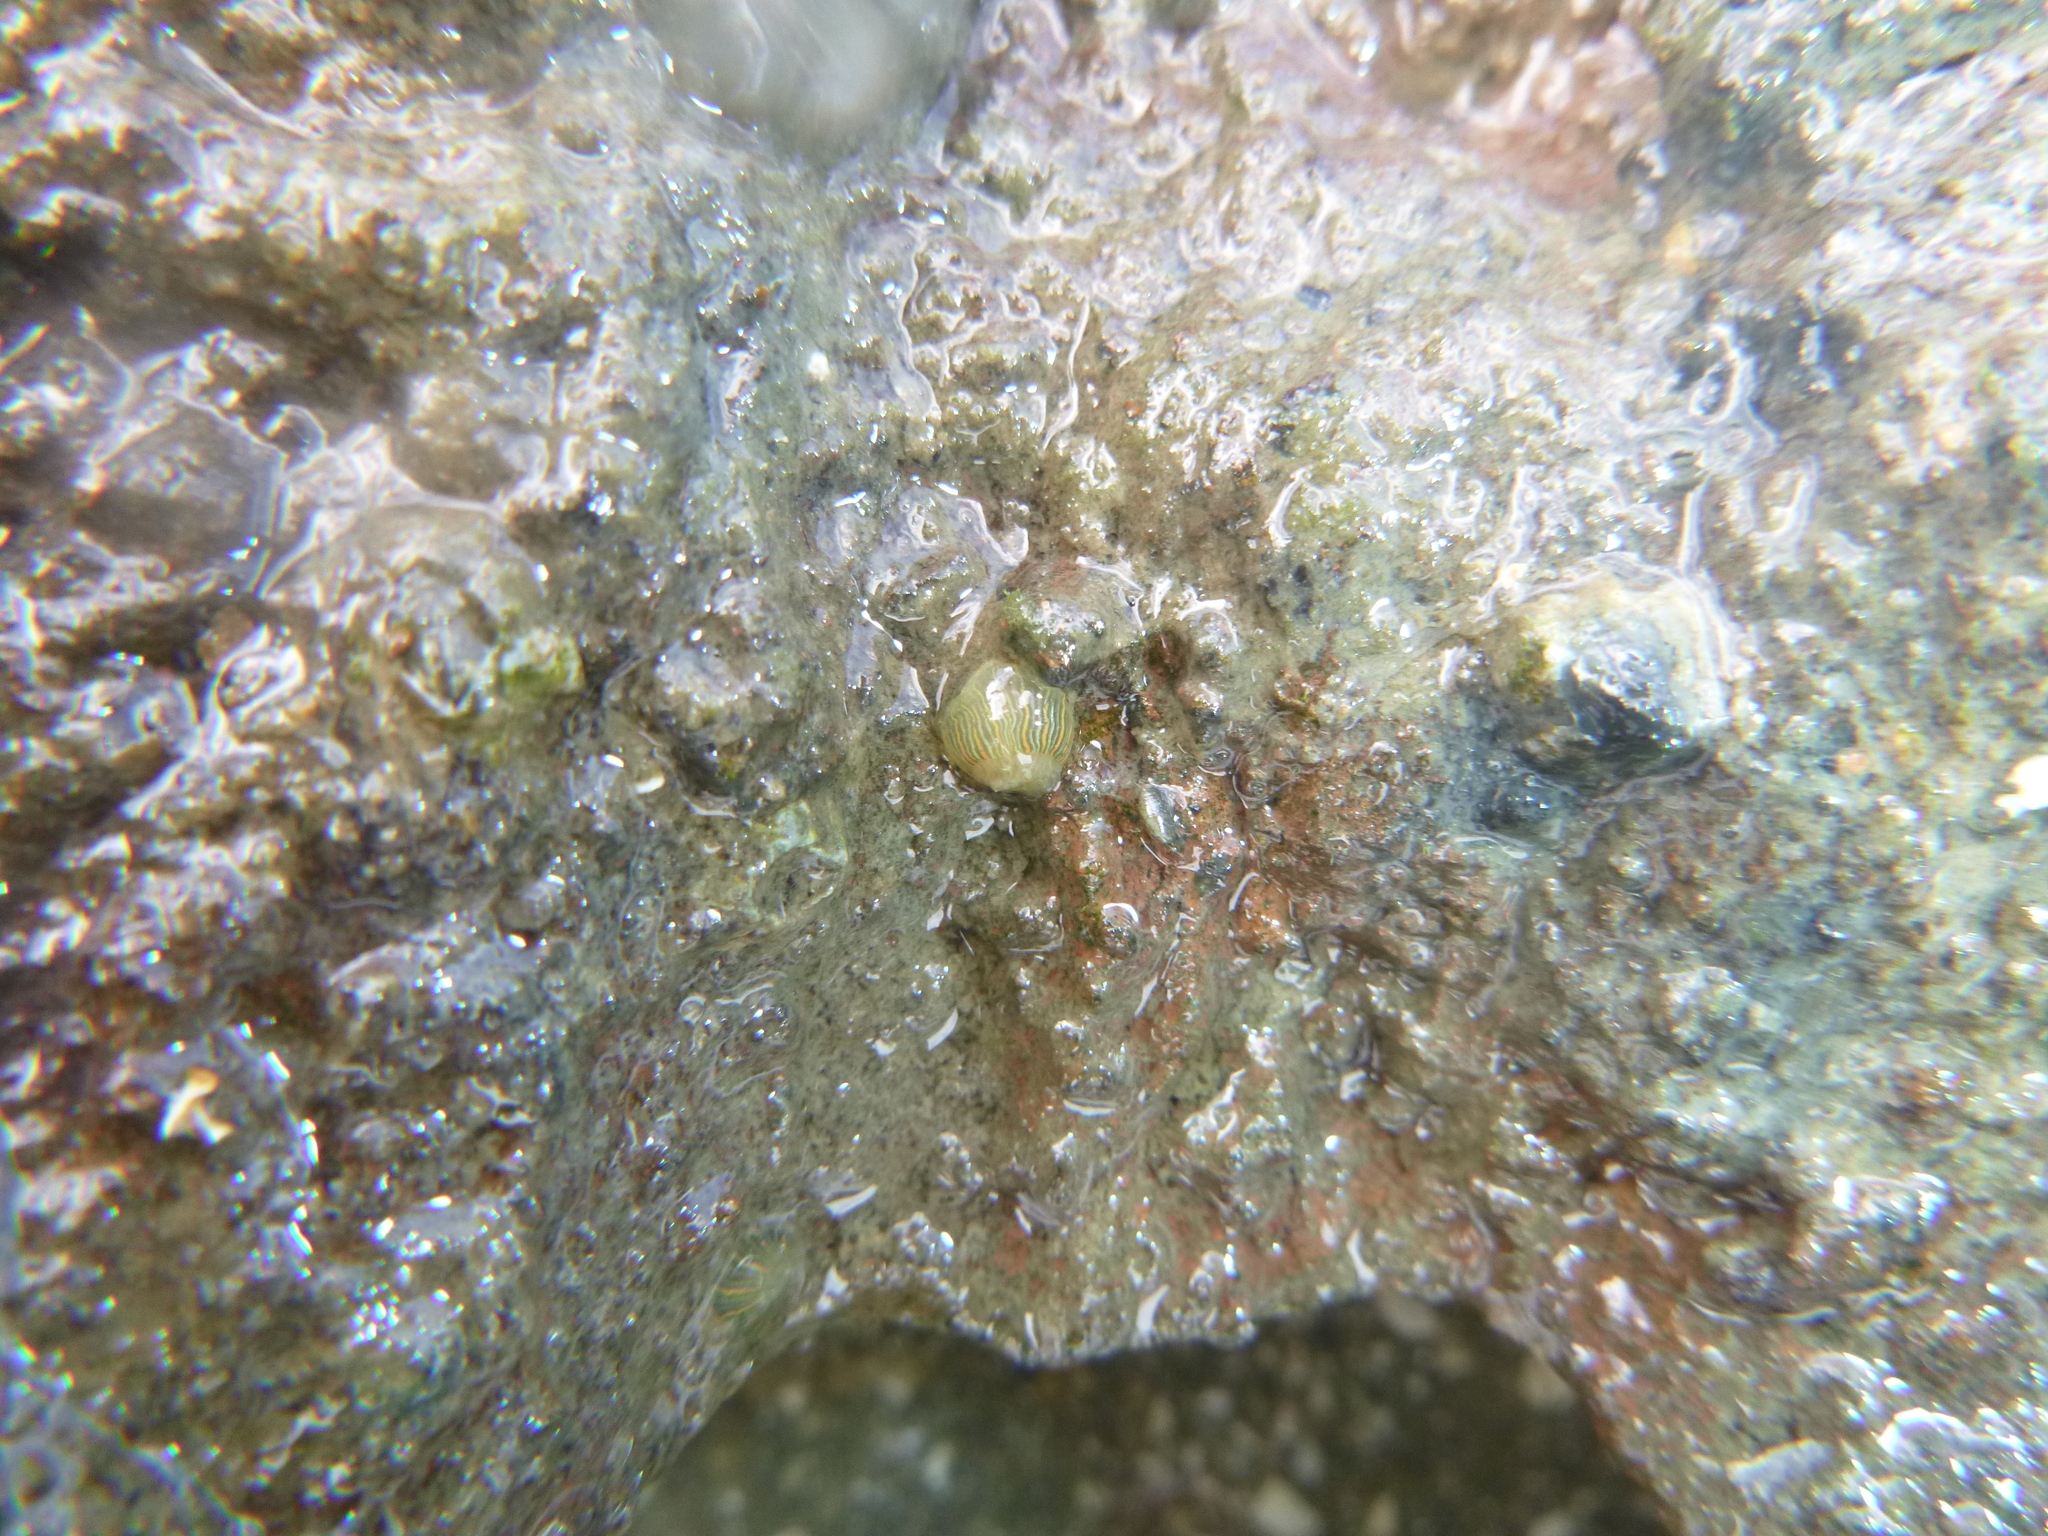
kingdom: Animalia
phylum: Cnidaria
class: Anthozoa
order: Actiniaria
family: Diadumenidae
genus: Diadumene
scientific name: Diadumene lineata
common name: Orange-striped anemone
